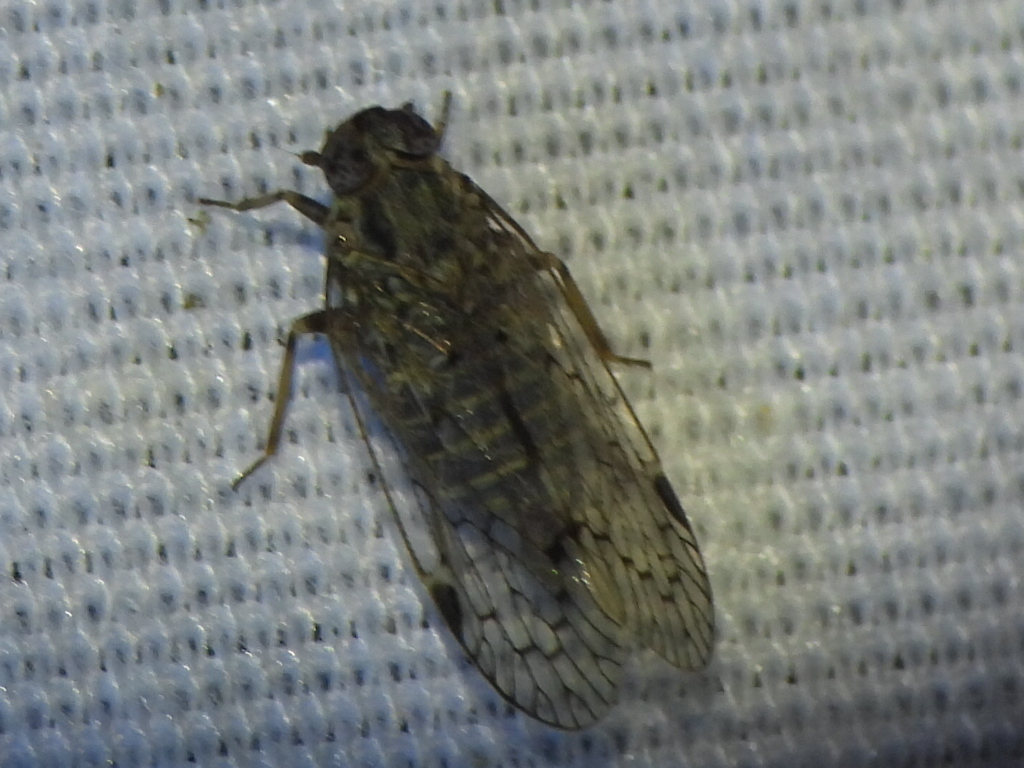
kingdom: Animalia
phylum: Arthropoda
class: Insecta
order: Hemiptera
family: Cixiidae
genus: Melanoliarus
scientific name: Melanoliarus aridus
